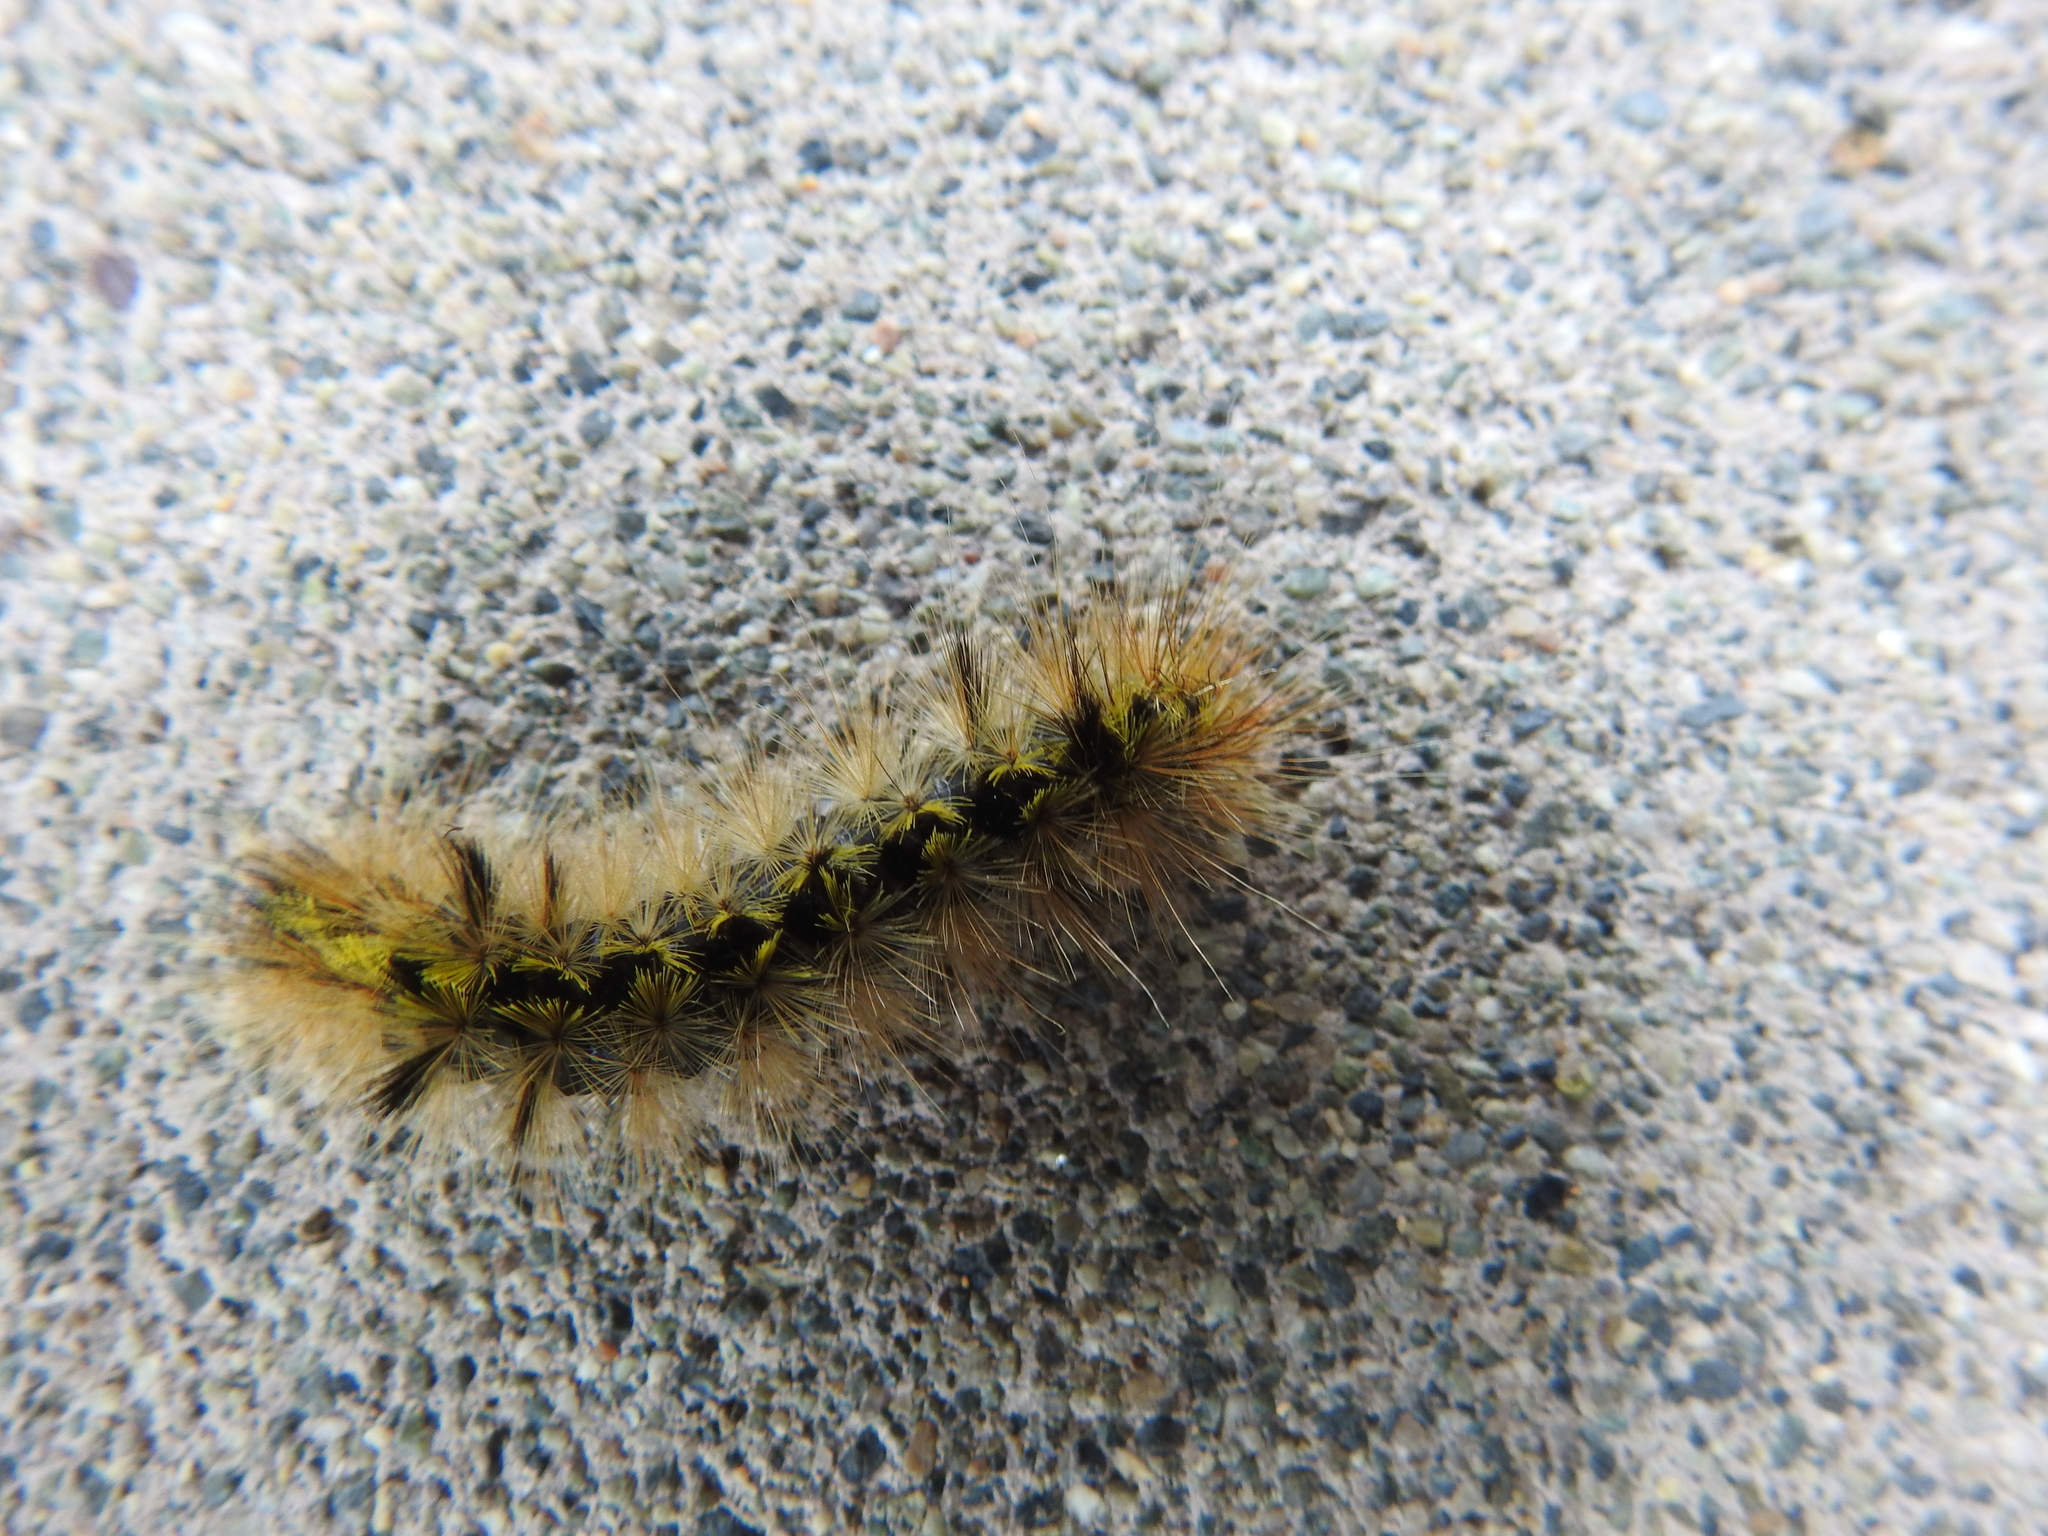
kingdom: Animalia
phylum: Arthropoda
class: Insecta
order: Lepidoptera
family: Erebidae
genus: Lophocampa
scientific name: Lophocampa argentata
